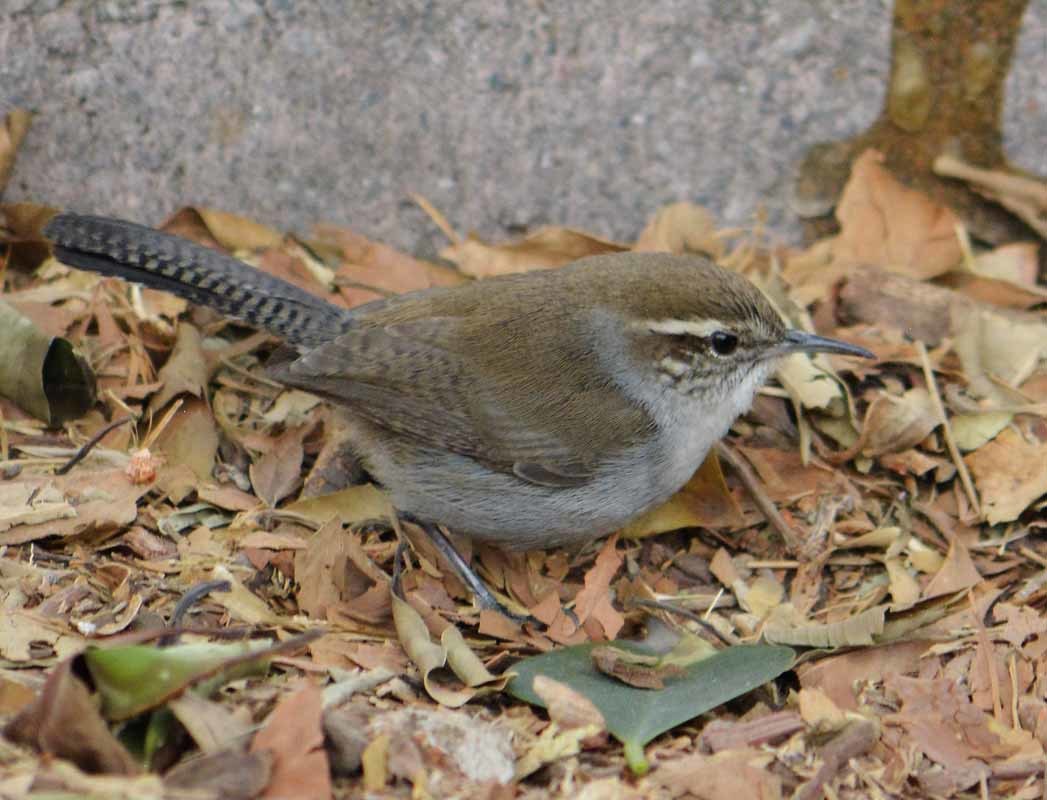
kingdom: Animalia
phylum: Chordata
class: Aves
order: Passeriformes
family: Troglodytidae
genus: Thryomanes
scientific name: Thryomanes bewickii
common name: Bewick's wren
